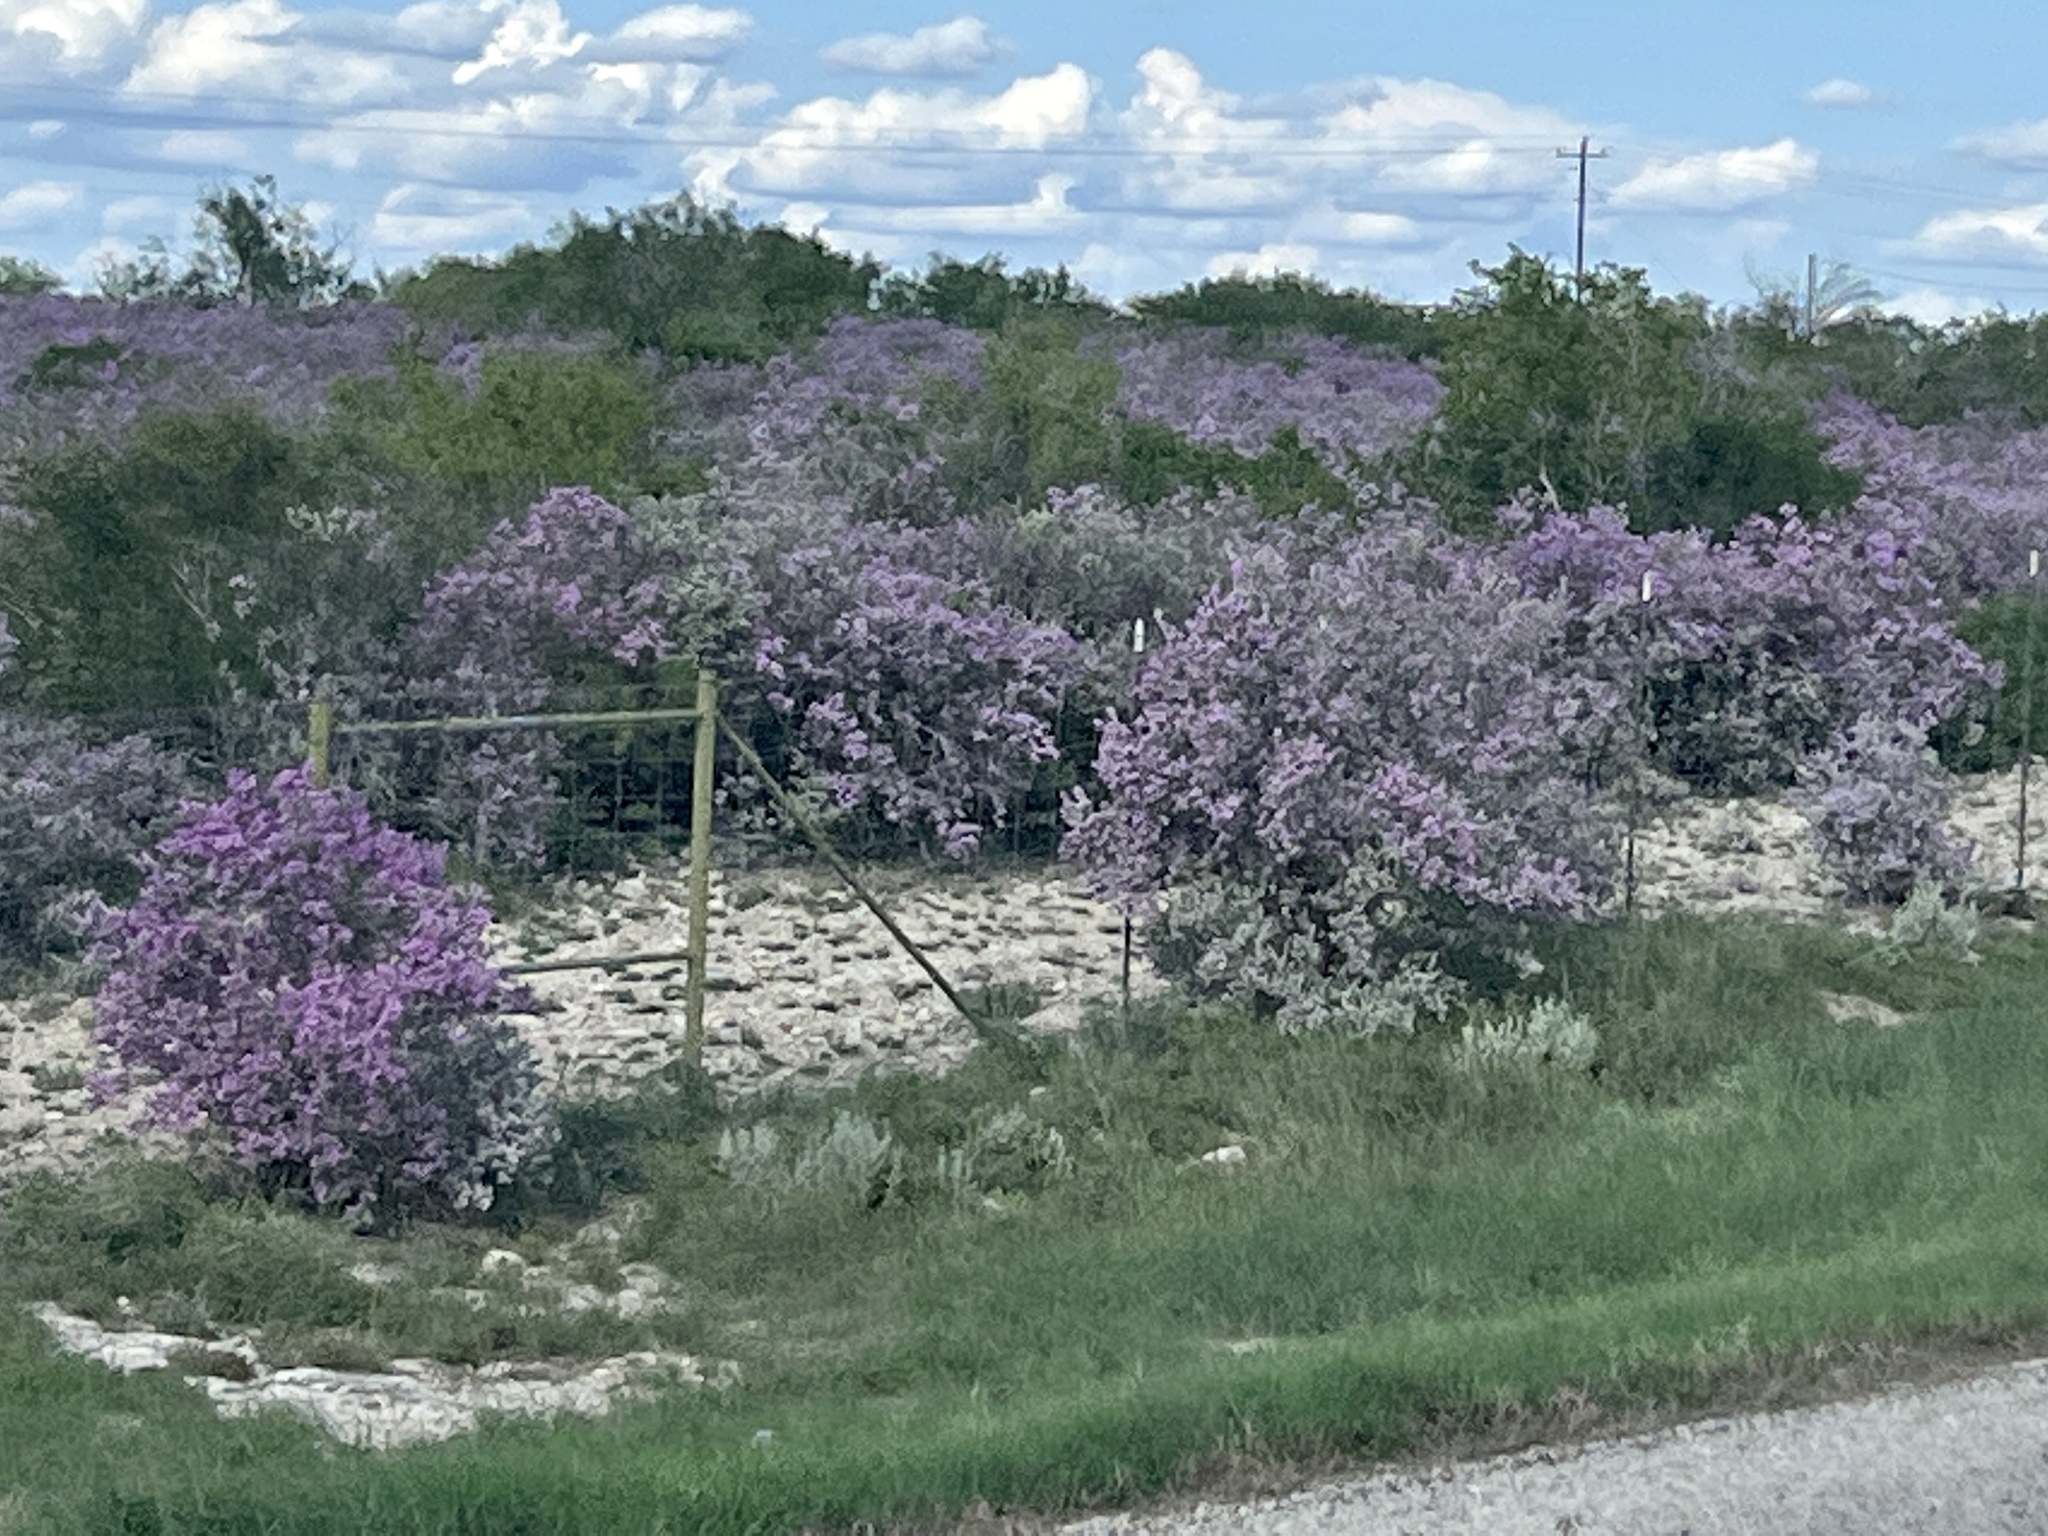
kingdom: Plantae
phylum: Tracheophyta
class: Magnoliopsida
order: Lamiales
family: Scrophulariaceae
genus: Leucophyllum
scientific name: Leucophyllum frutescens
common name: Texas silverleaf
